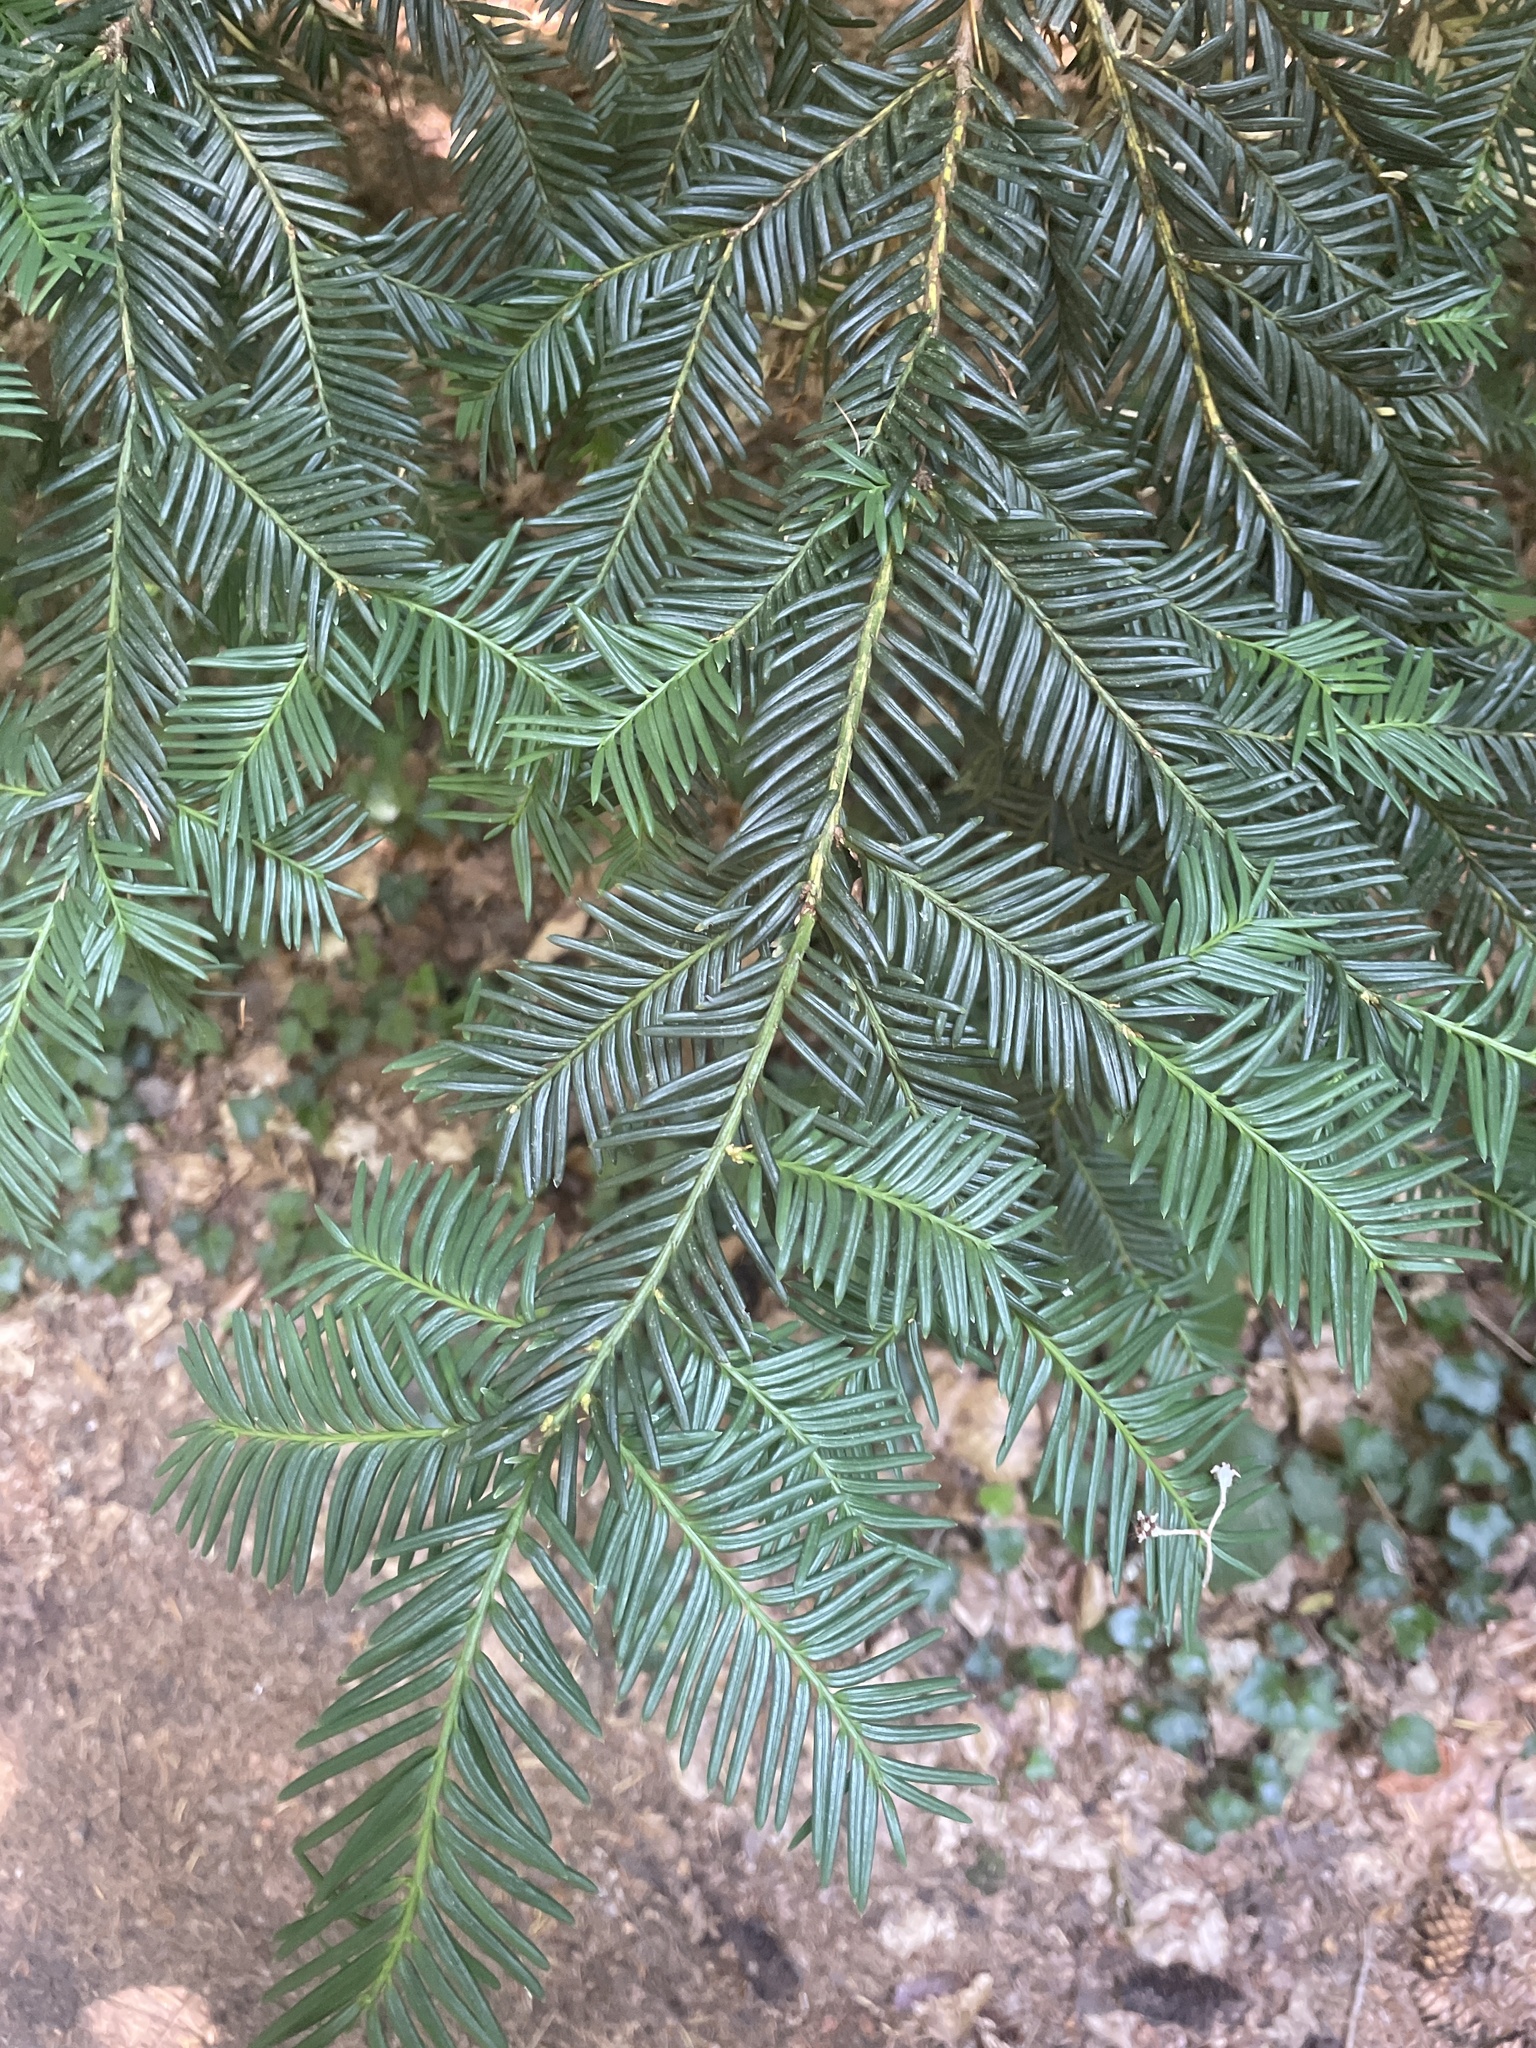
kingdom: Plantae
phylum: Tracheophyta
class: Pinopsida
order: Pinales
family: Taxaceae
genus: Taxus
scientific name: Taxus baccata
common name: Yew
